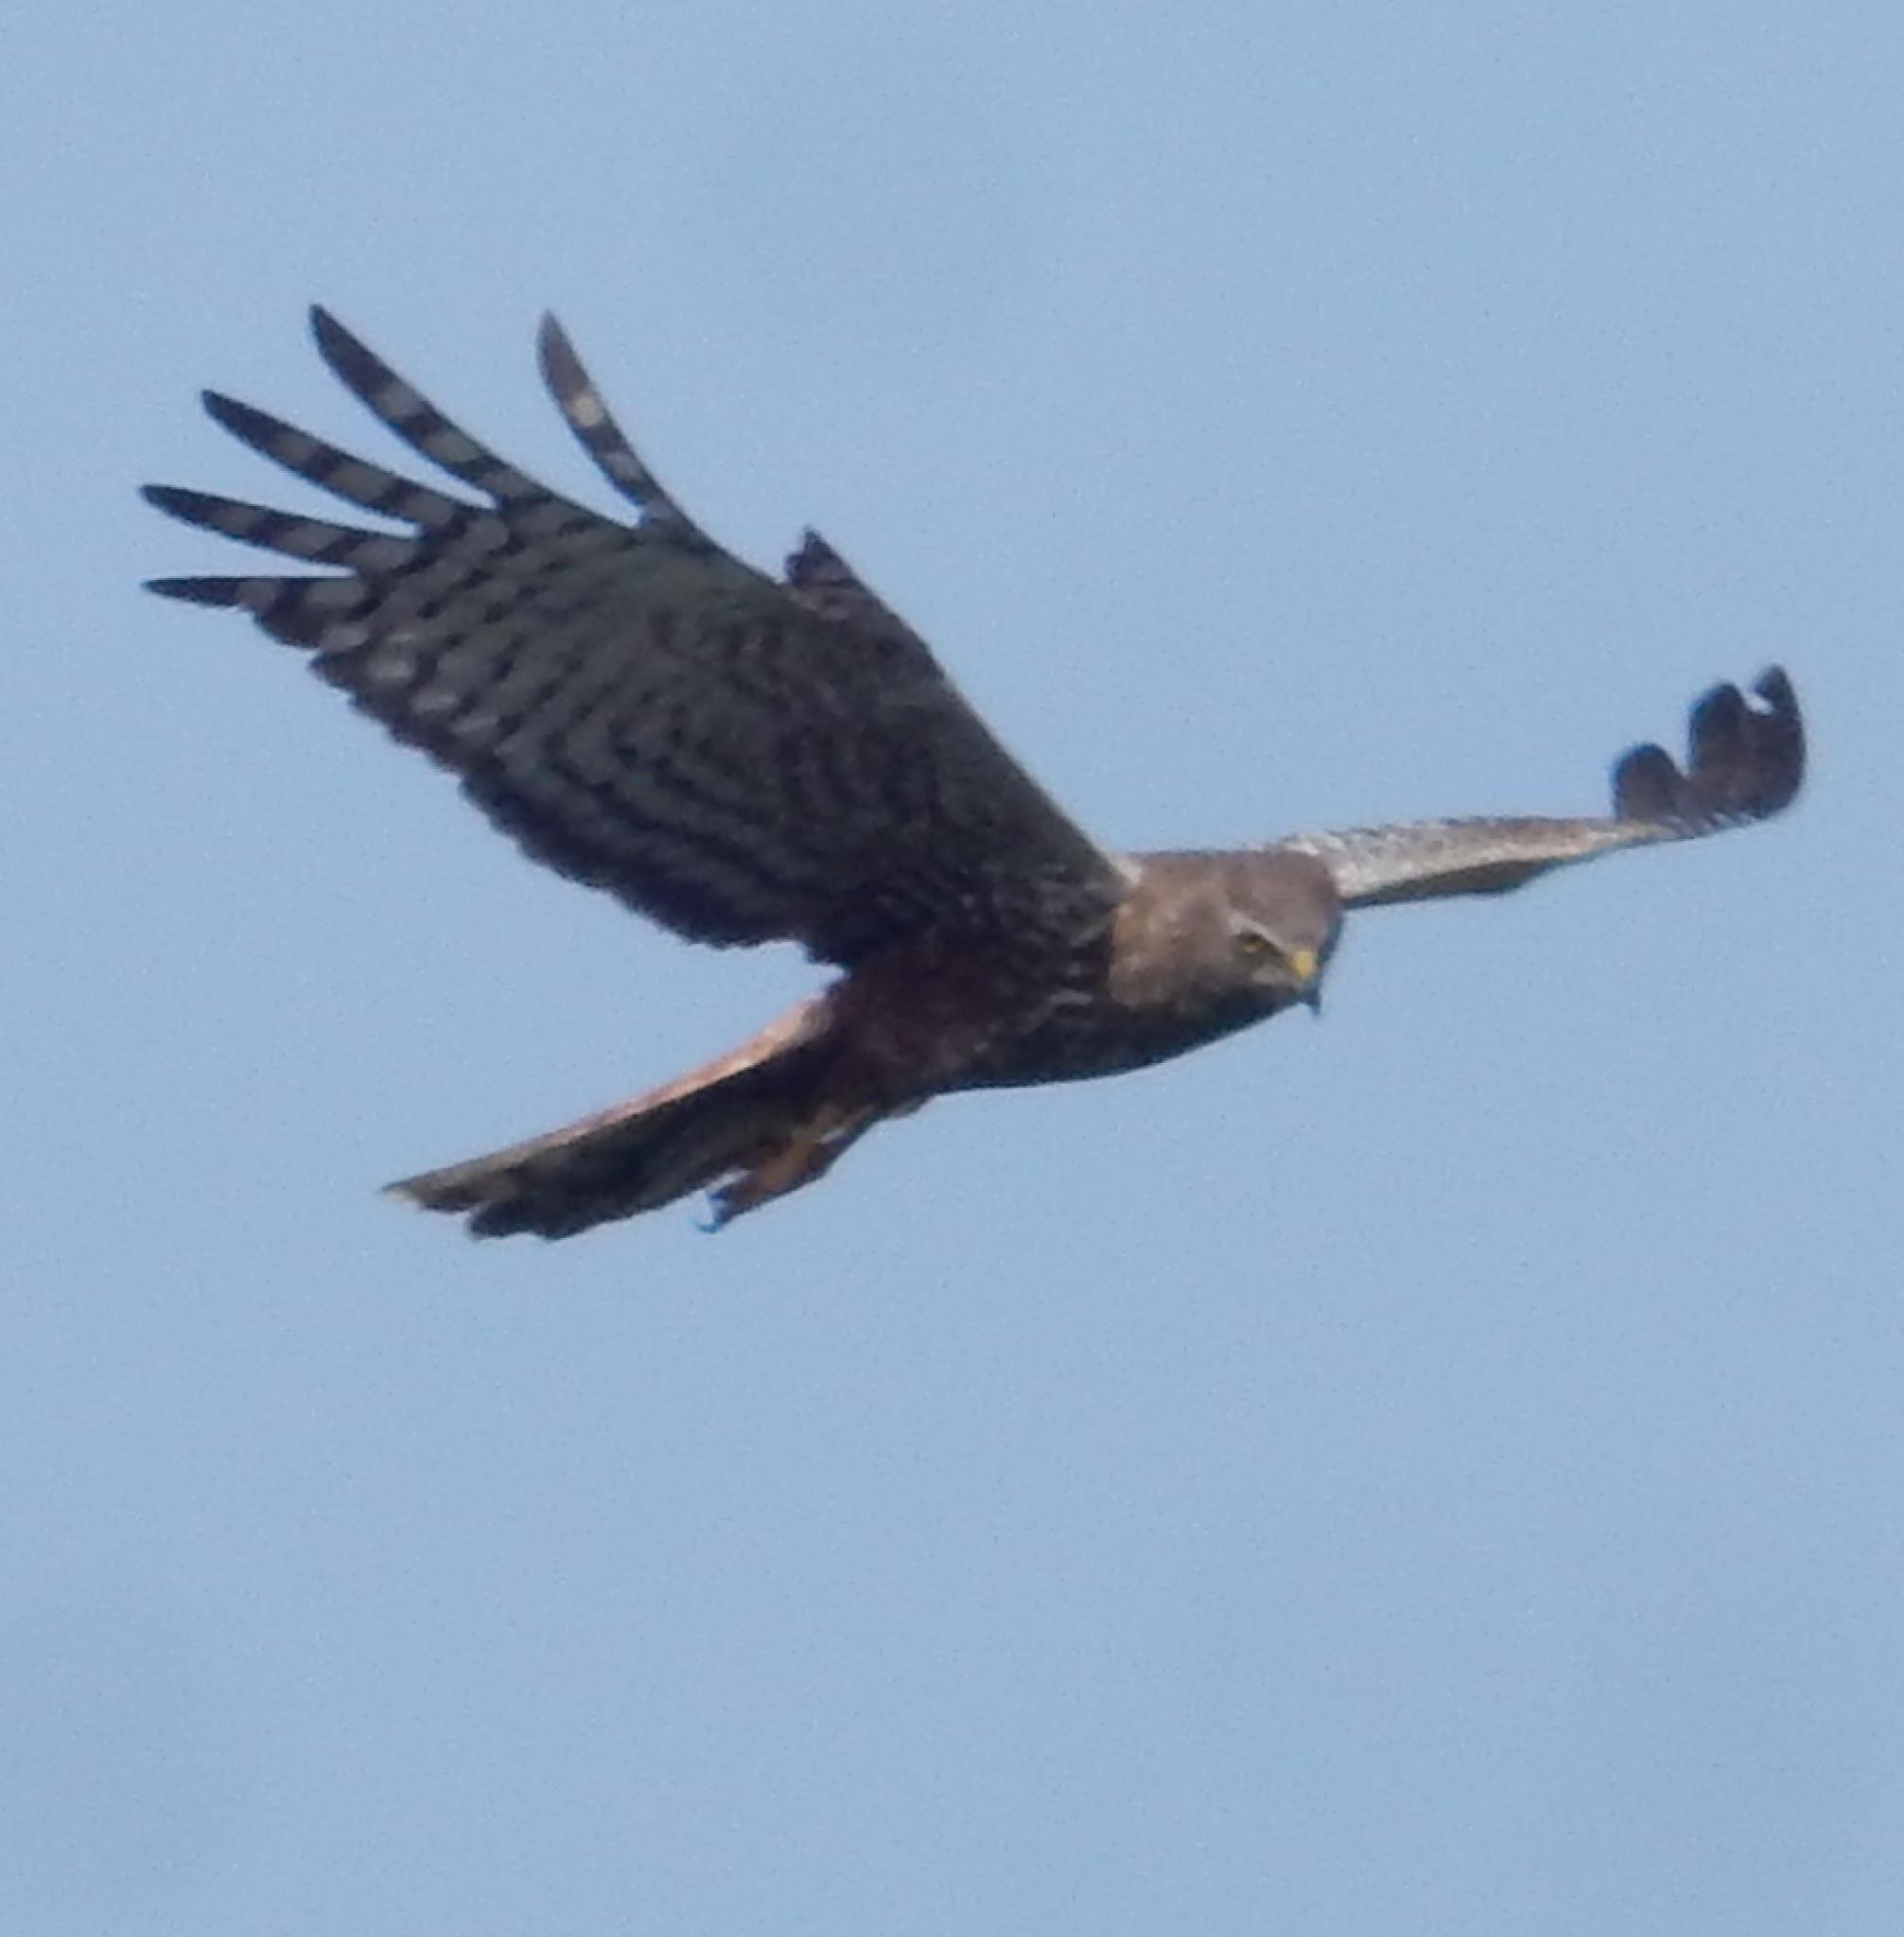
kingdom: Animalia
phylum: Chordata
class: Aves
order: Accipitriformes
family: Accipitridae
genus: Circus
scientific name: Circus ranivorus
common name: African marsh-harrier
